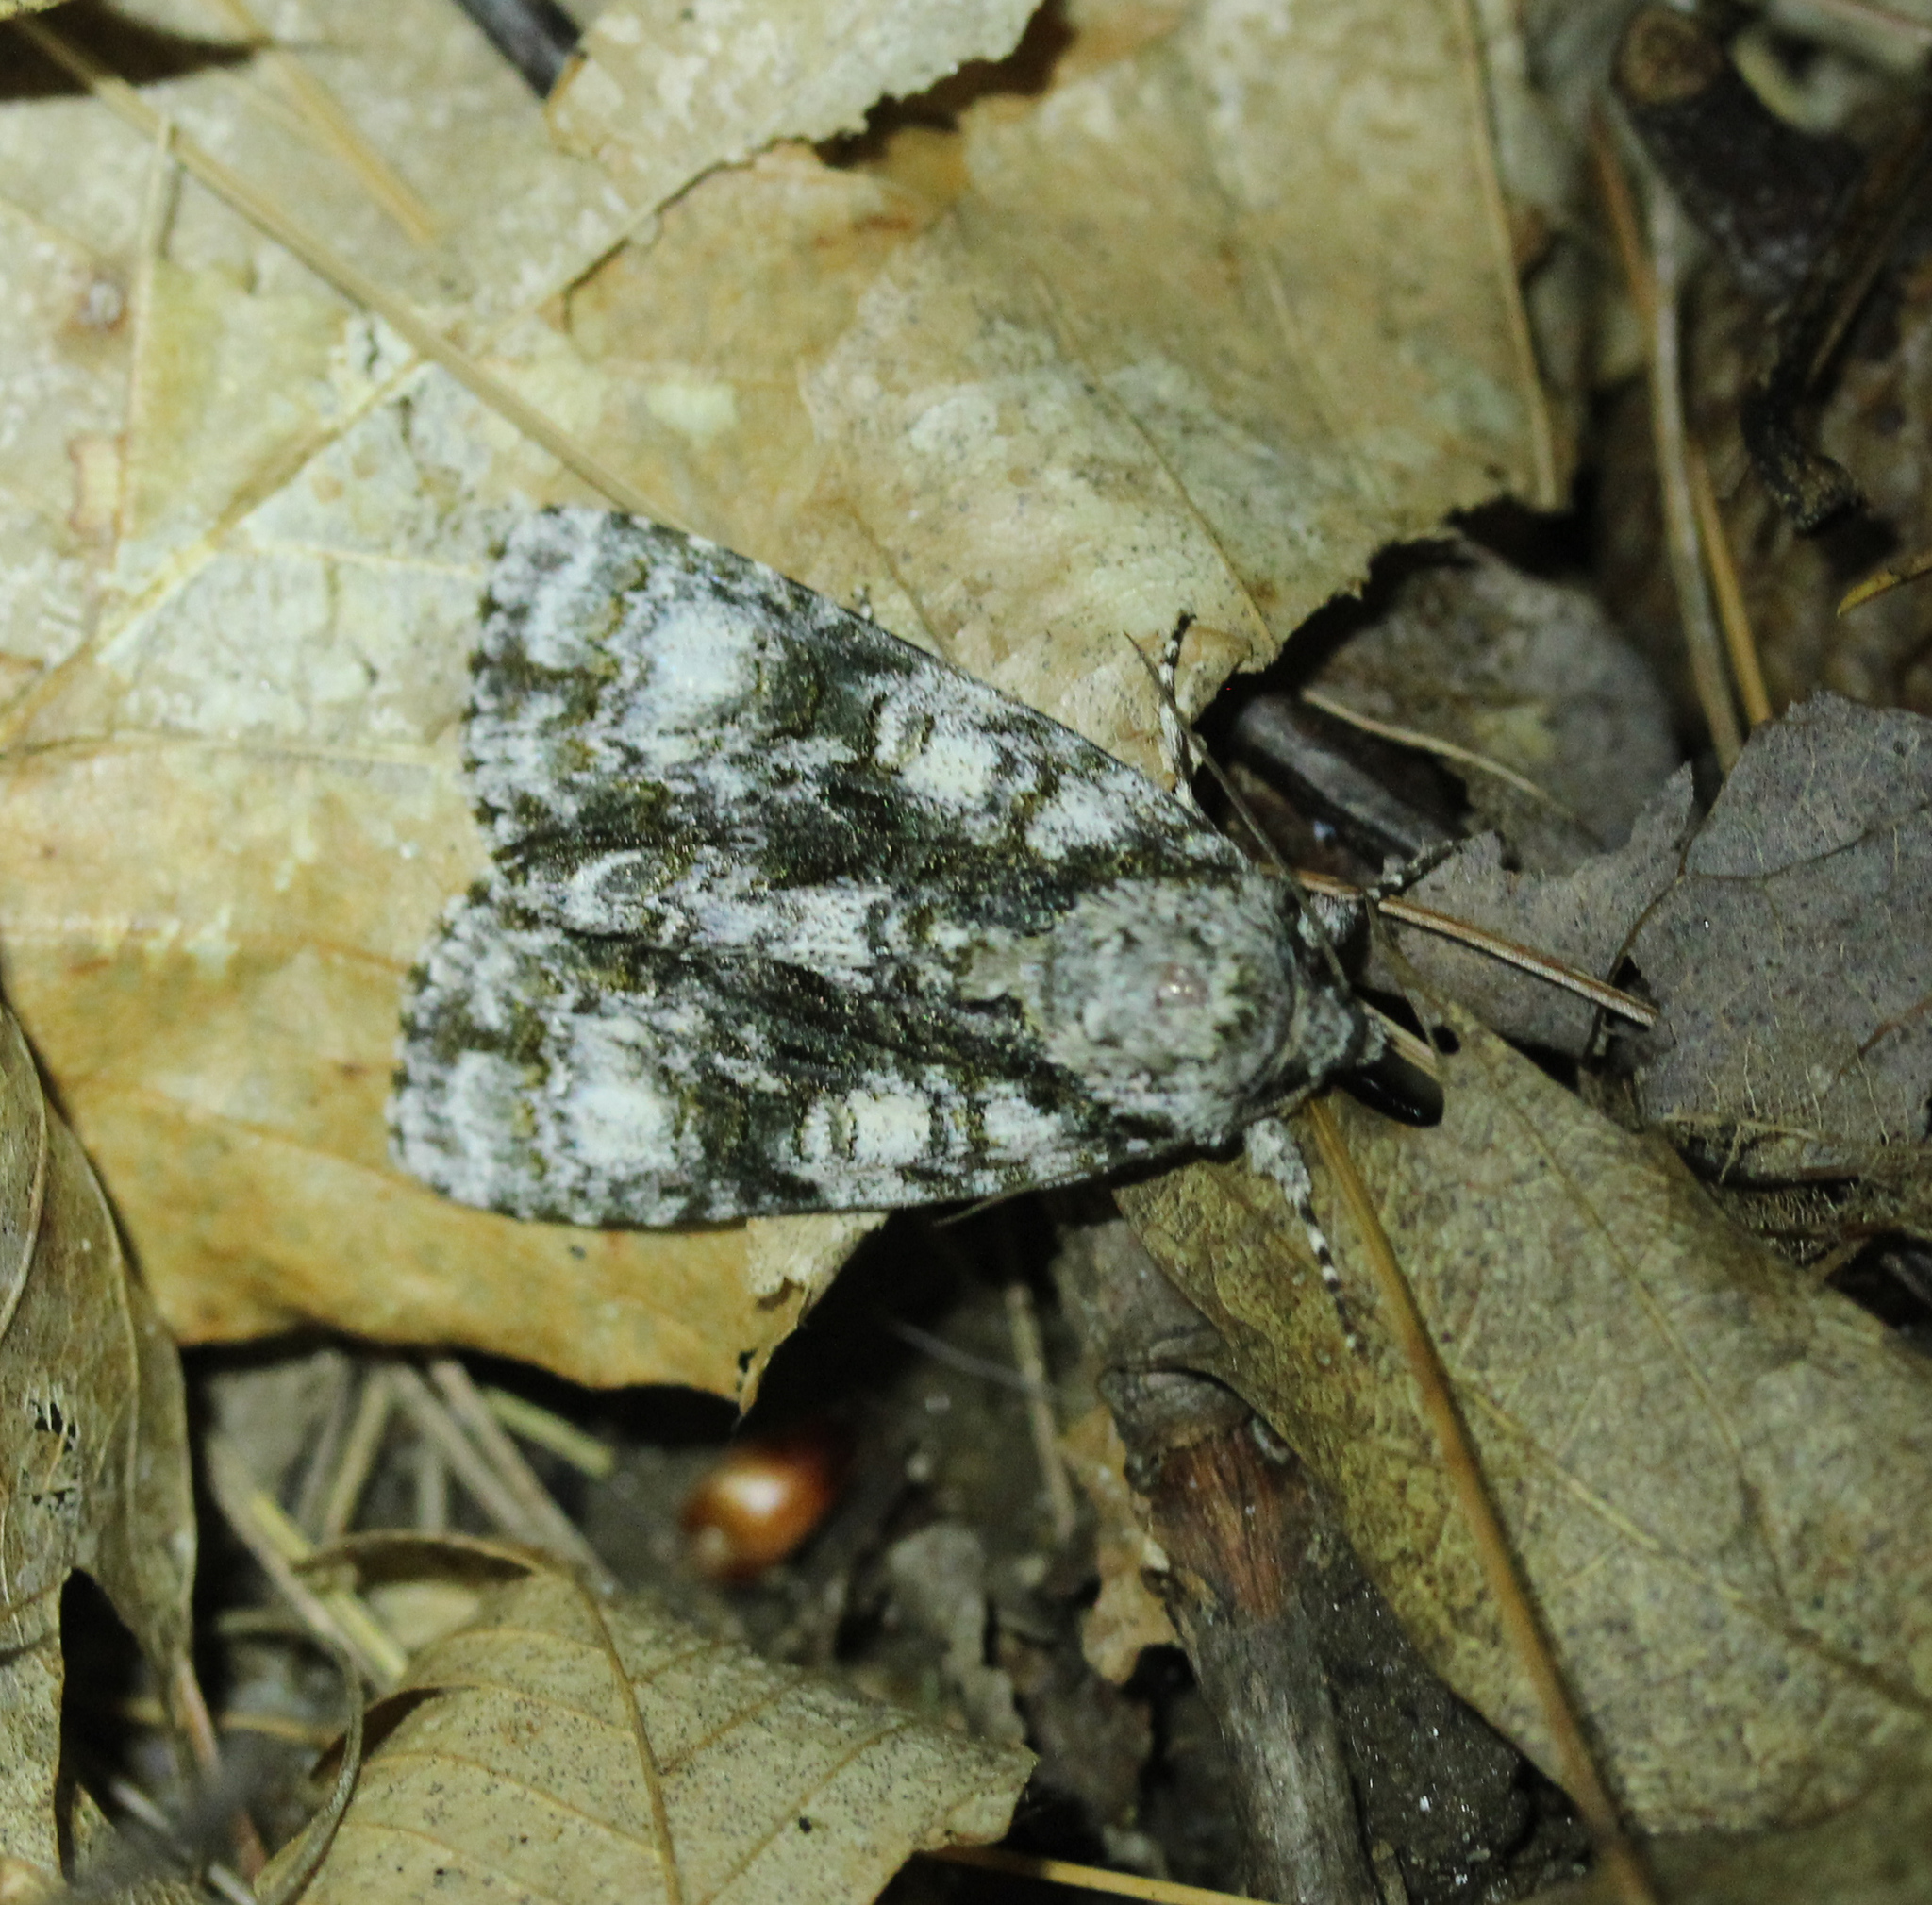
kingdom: Animalia
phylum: Arthropoda
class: Insecta
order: Lepidoptera
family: Noctuidae
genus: Acronicta
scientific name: Acronicta superans
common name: Splendid dagger
